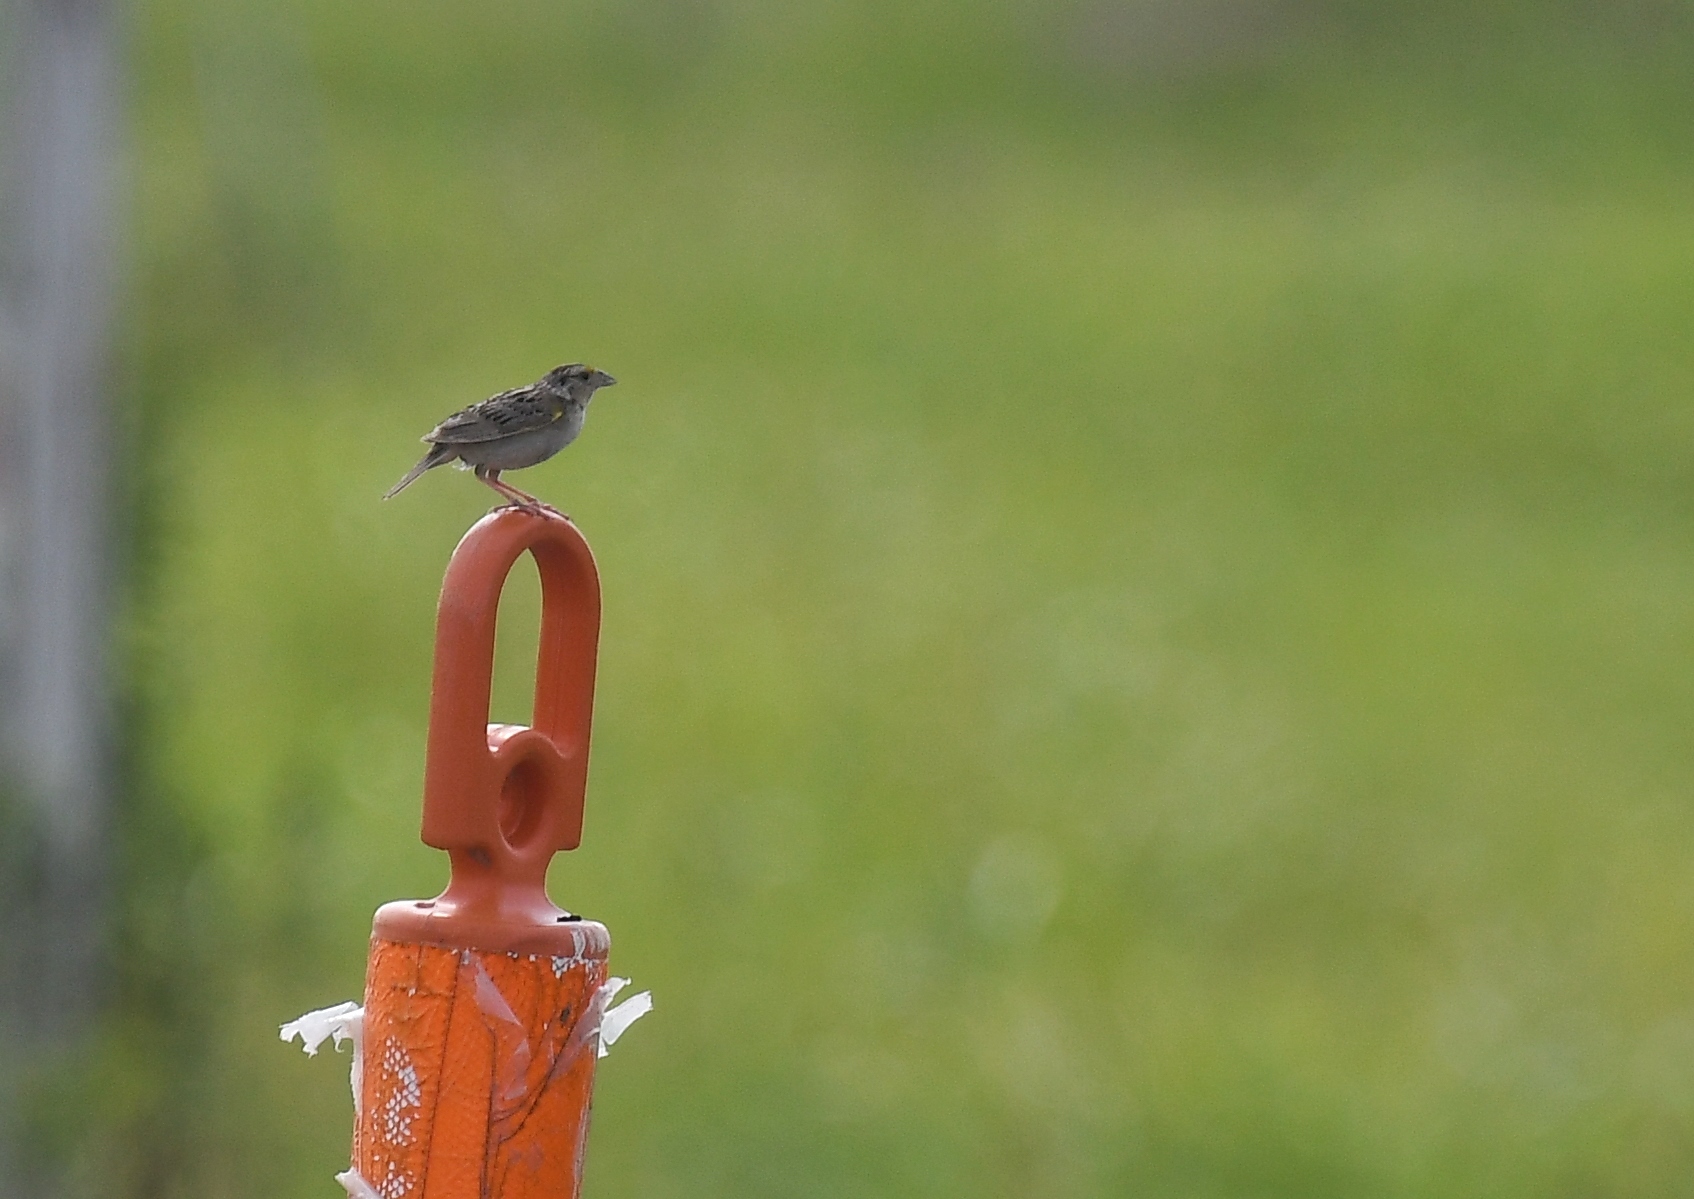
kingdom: Animalia
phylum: Chordata
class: Aves
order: Passeriformes
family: Passerellidae
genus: Ammodramus
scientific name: Ammodramus savannarum
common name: Grasshopper sparrow
